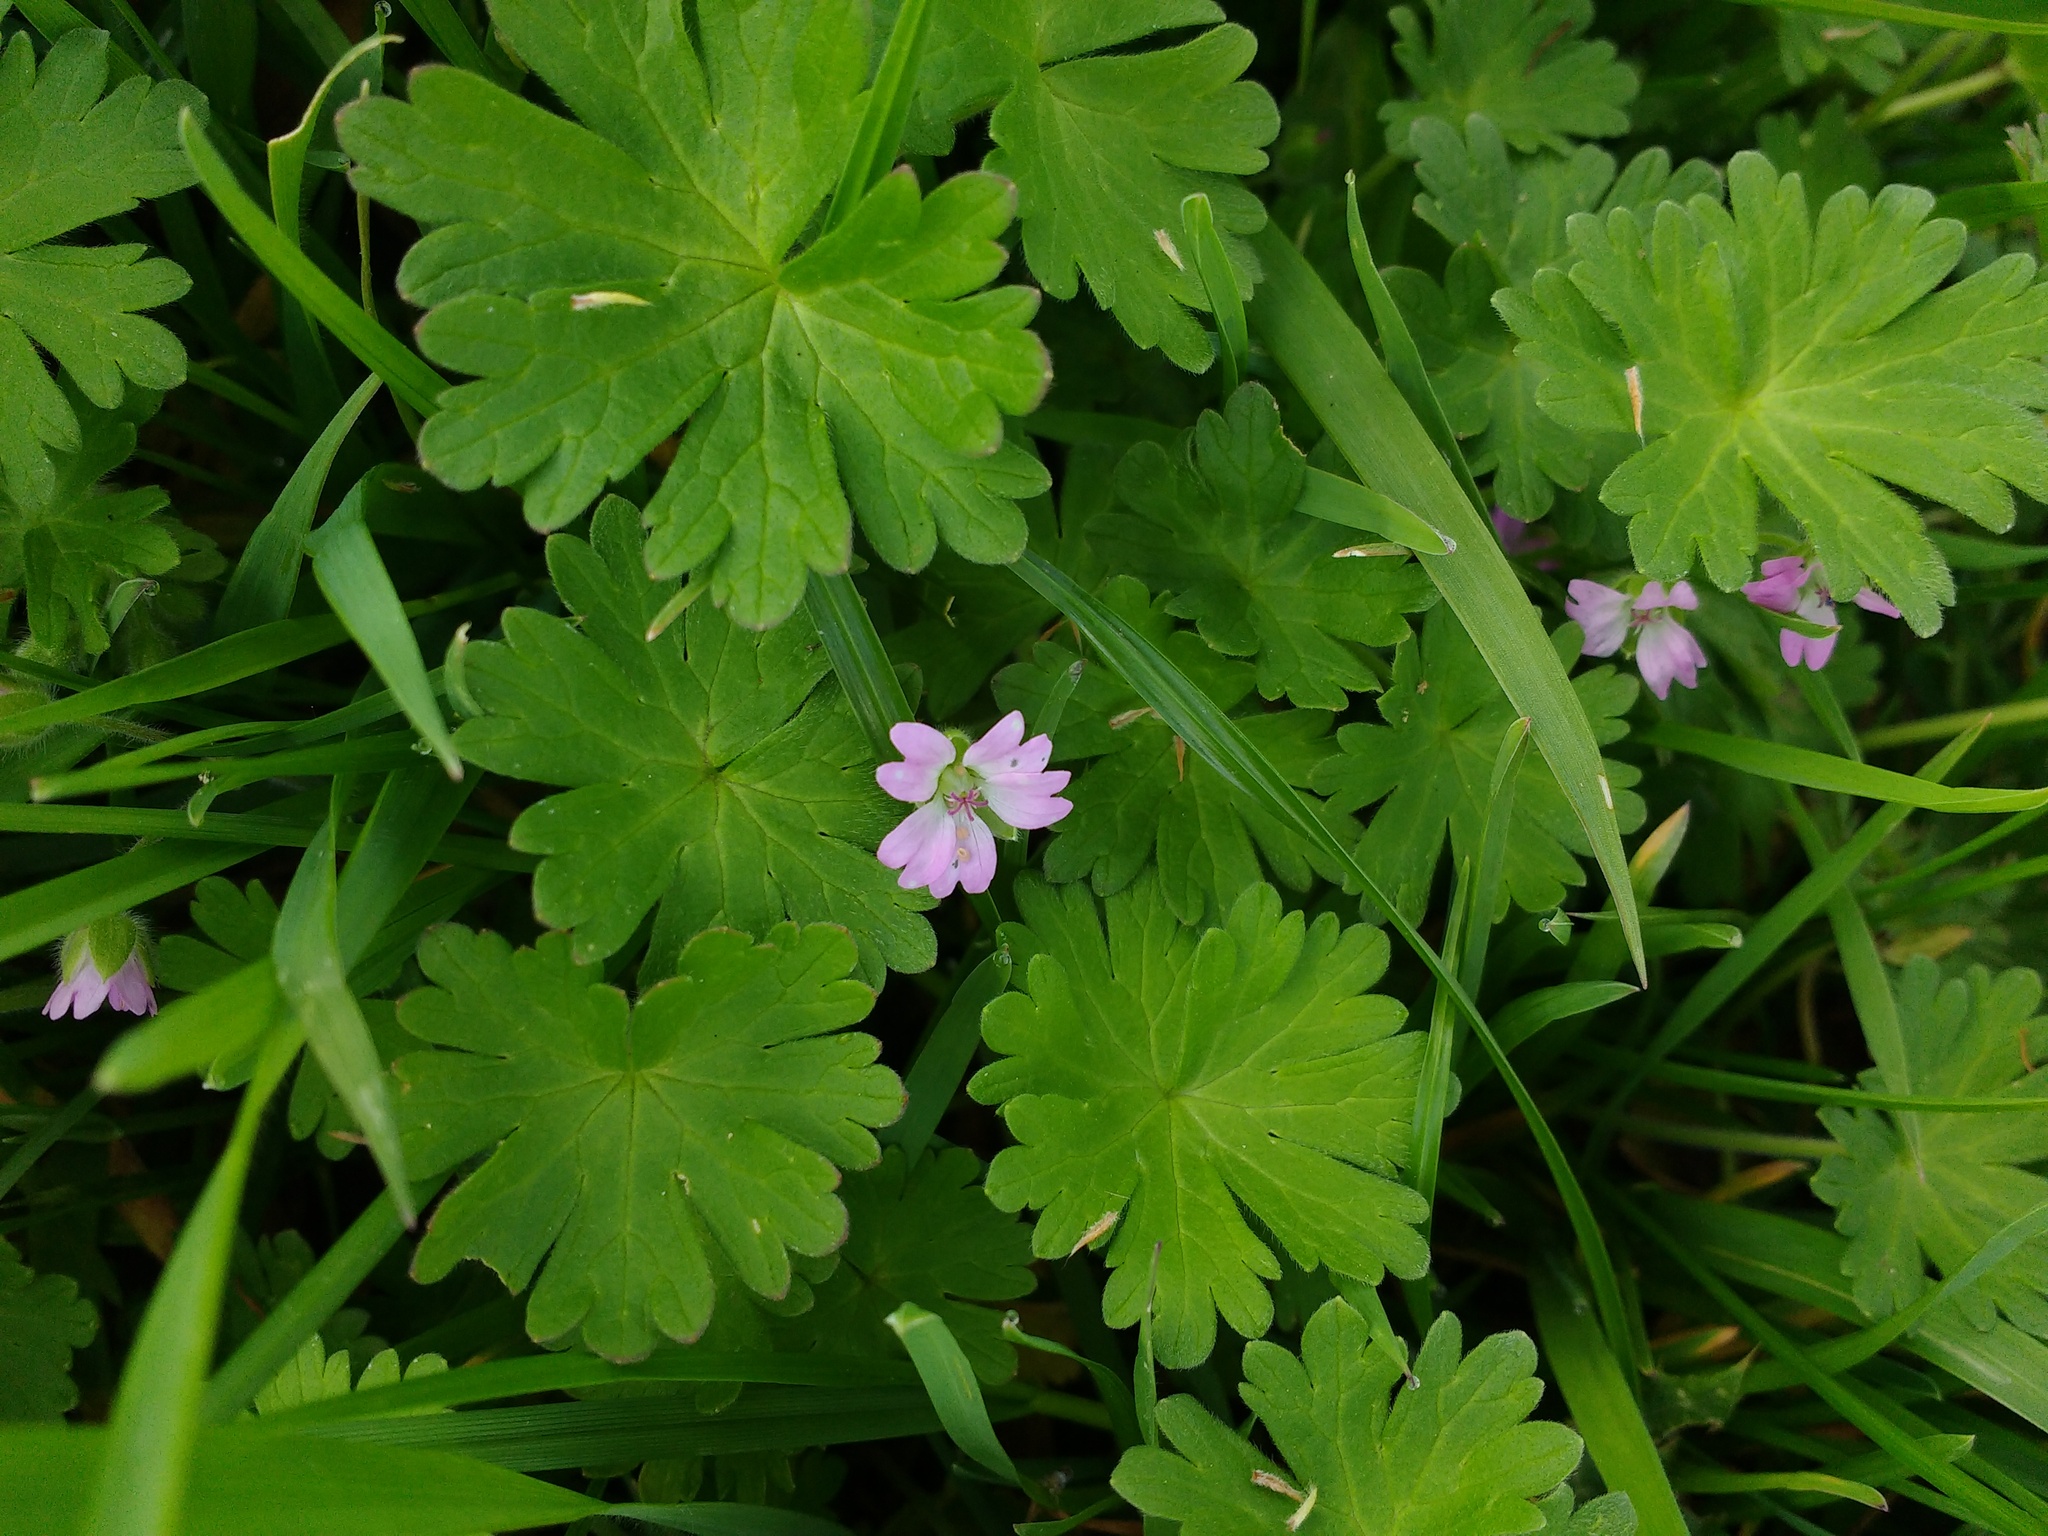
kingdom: Plantae
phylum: Tracheophyta
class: Magnoliopsida
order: Geraniales
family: Geraniaceae
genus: Geranium
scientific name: Geranium molle
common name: Dove's-foot crane's-bill
